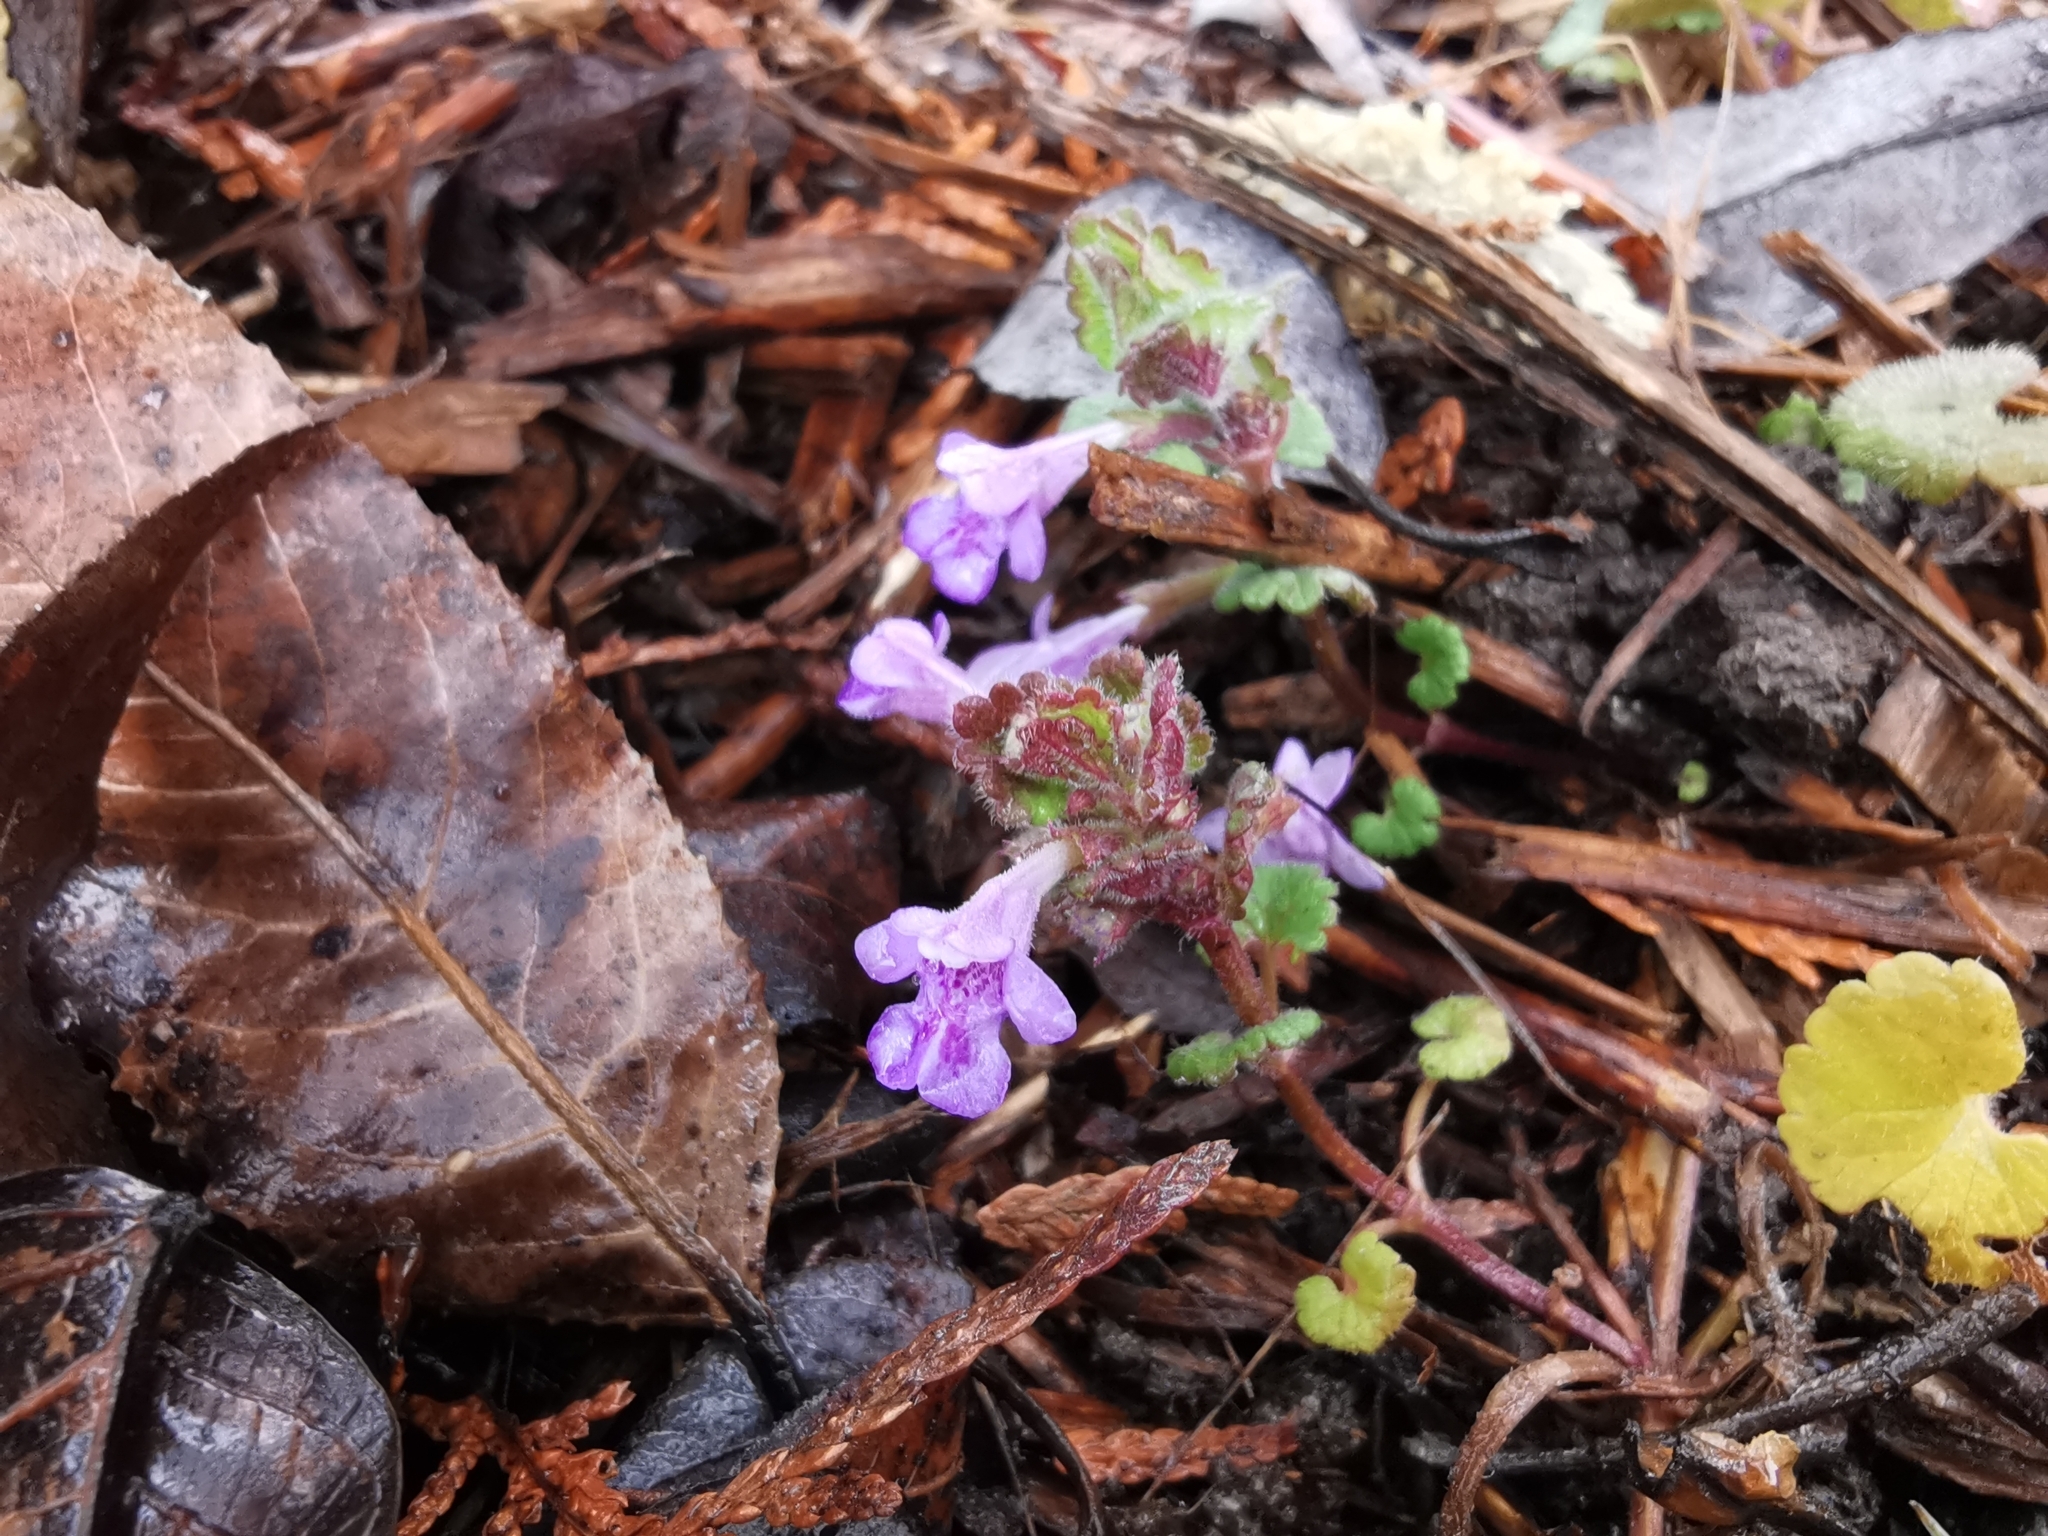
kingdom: Plantae
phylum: Tracheophyta
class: Magnoliopsida
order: Lamiales
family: Lamiaceae
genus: Glechoma
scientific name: Glechoma hederacea
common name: Ground ivy
